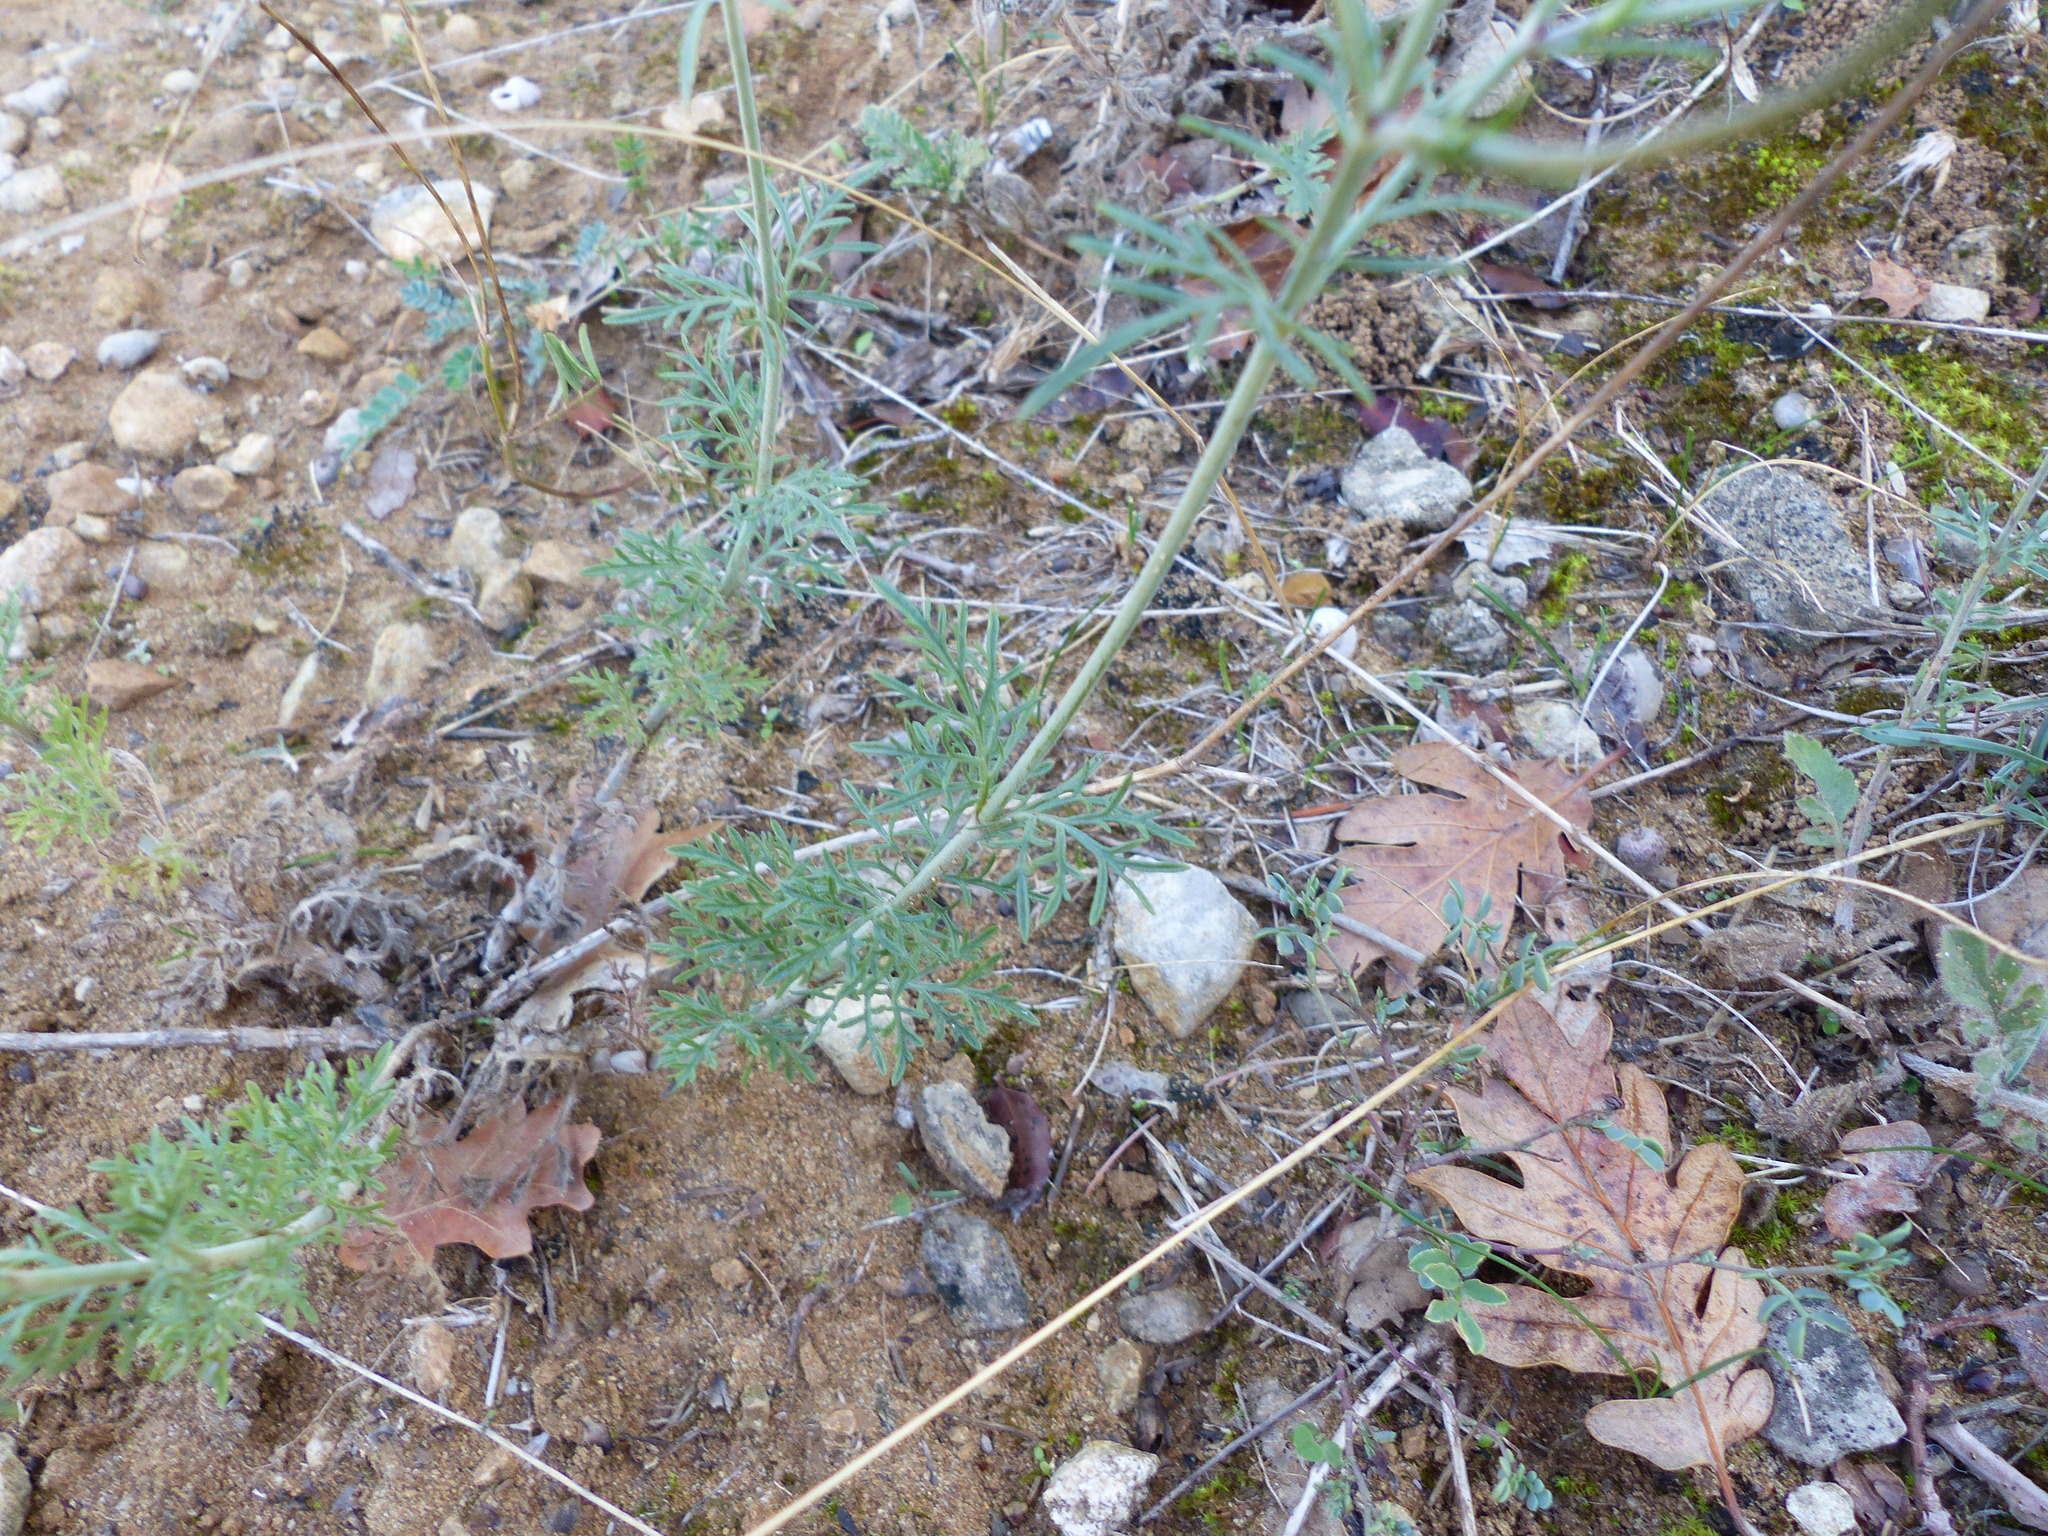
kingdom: Plantae
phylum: Tracheophyta
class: Magnoliopsida
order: Dipsacales
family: Caprifoliaceae
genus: Scabiosa
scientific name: Scabiosa columbaria
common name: Small scabious
